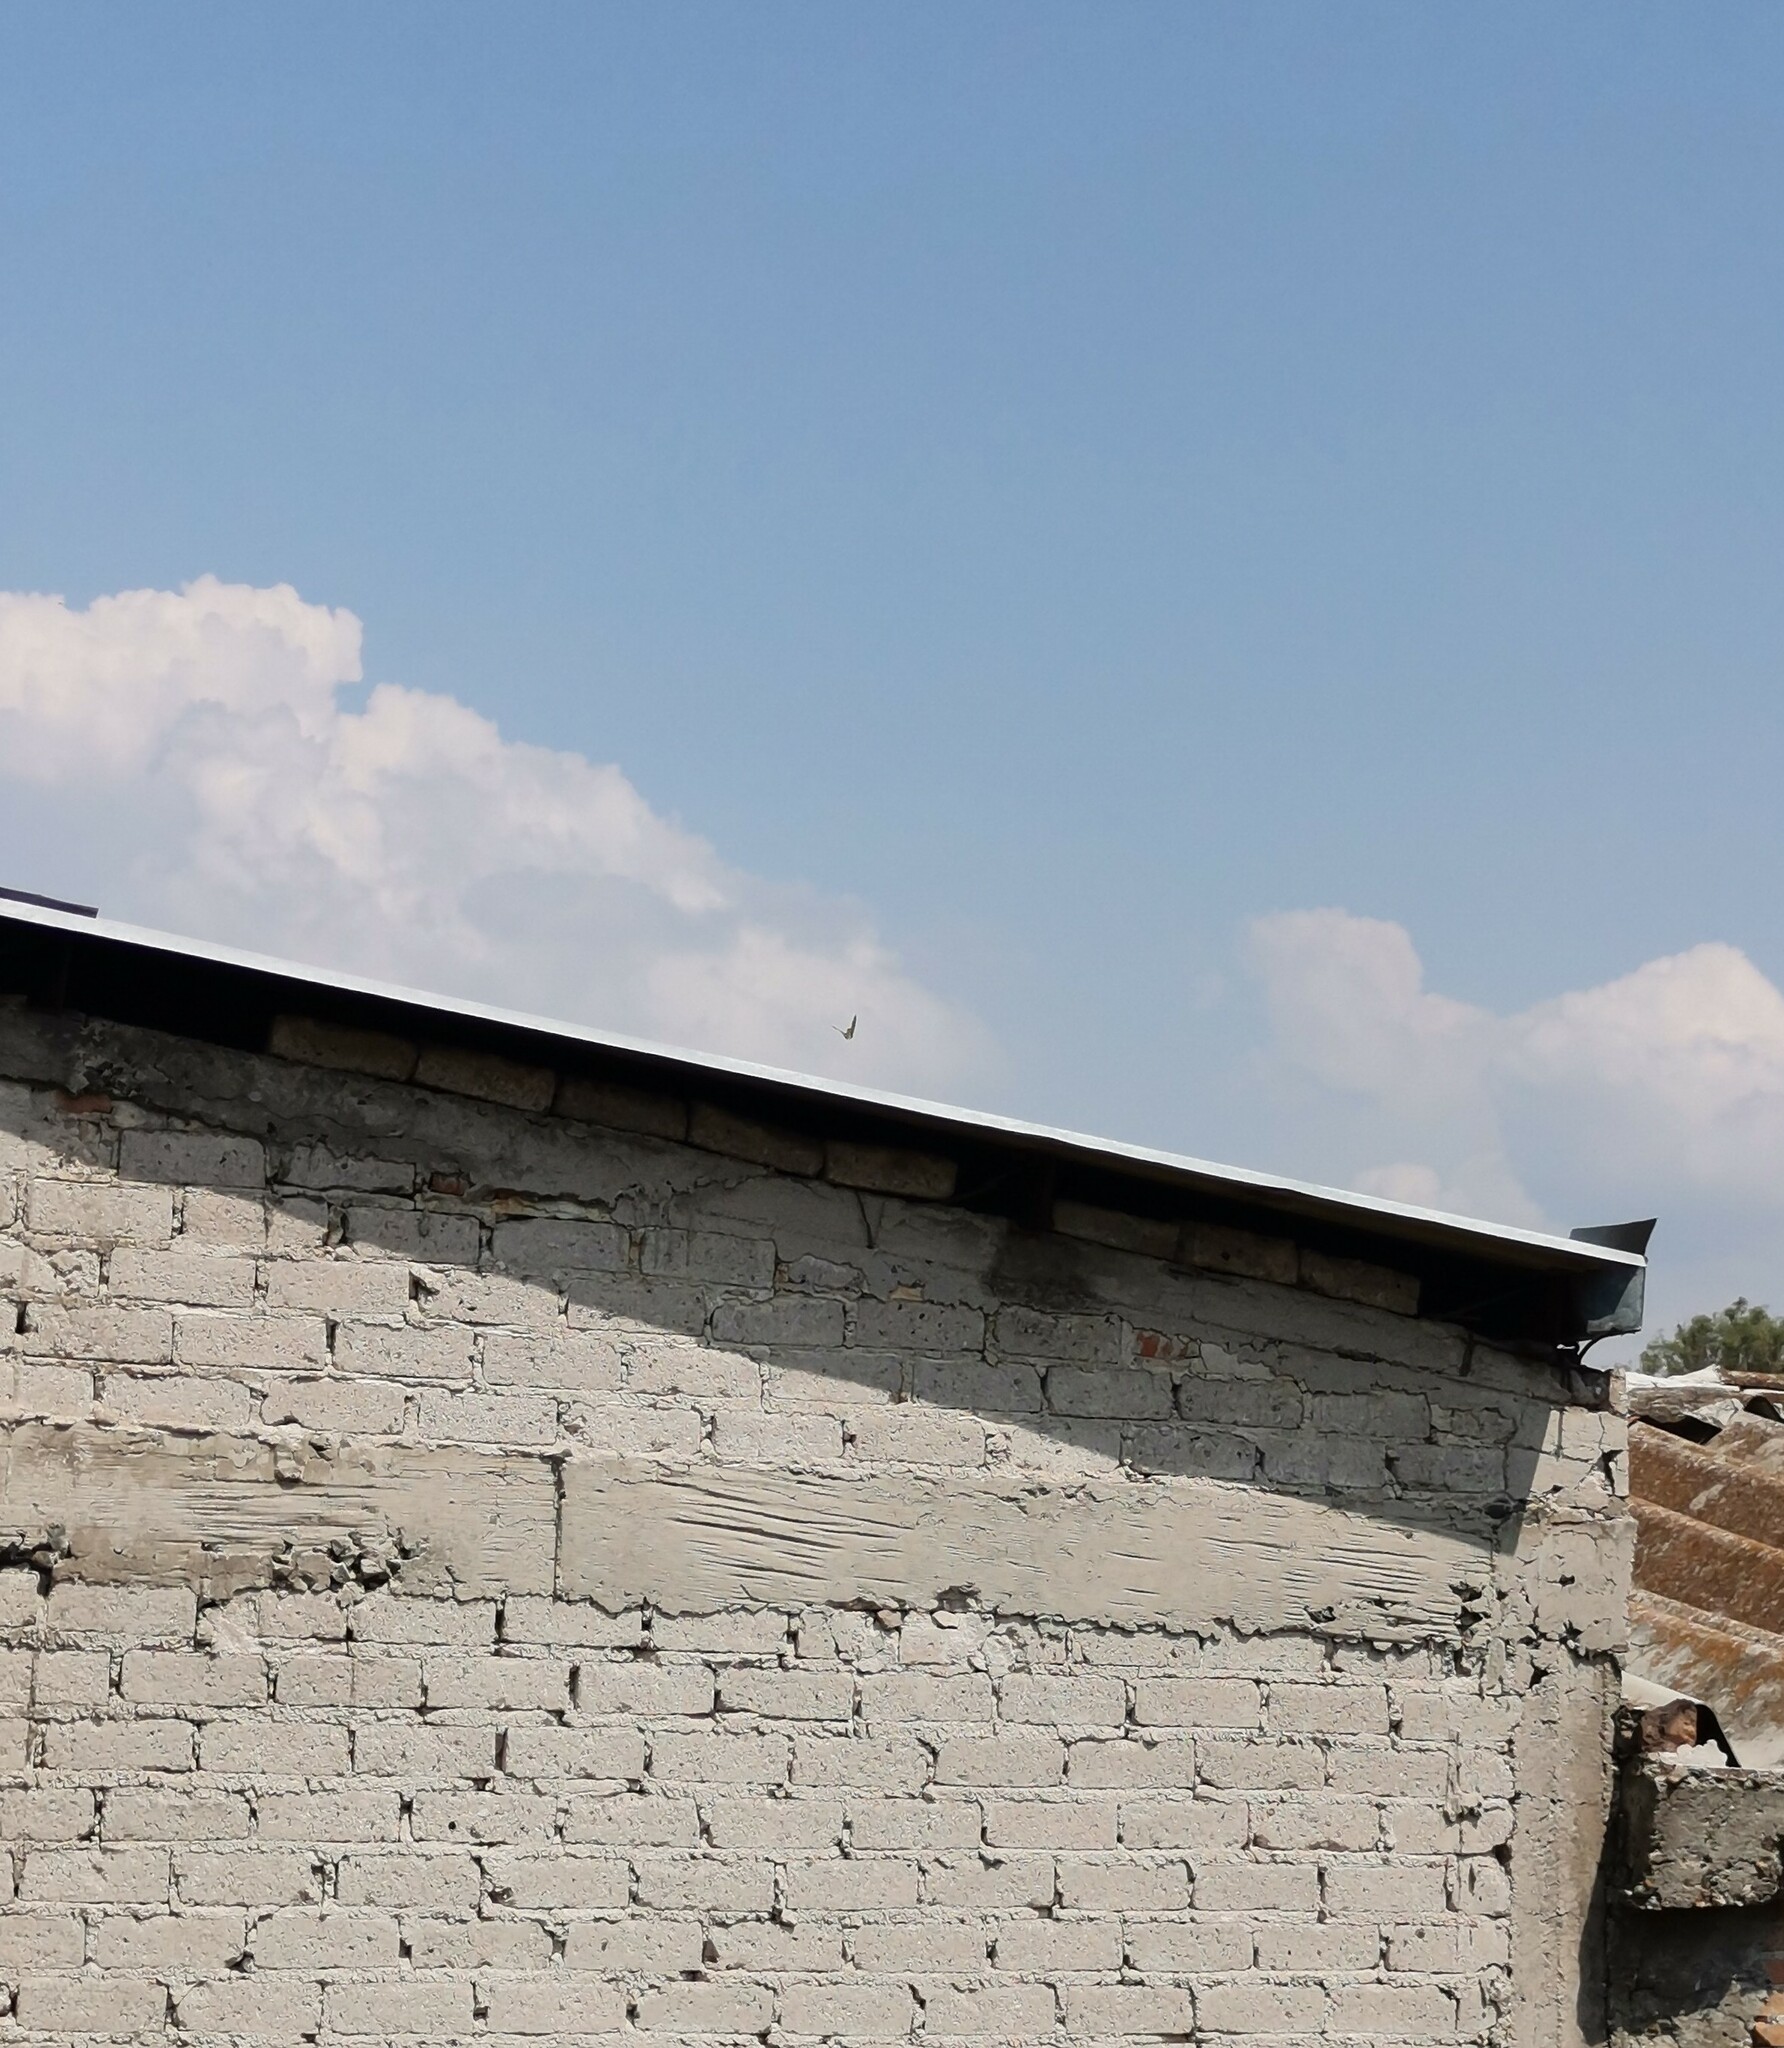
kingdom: Animalia
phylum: Arthropoda
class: Insecta
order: Lepidoptera
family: Nymphalidae
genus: Danaus
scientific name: Danaus plexippus
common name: Monarch
